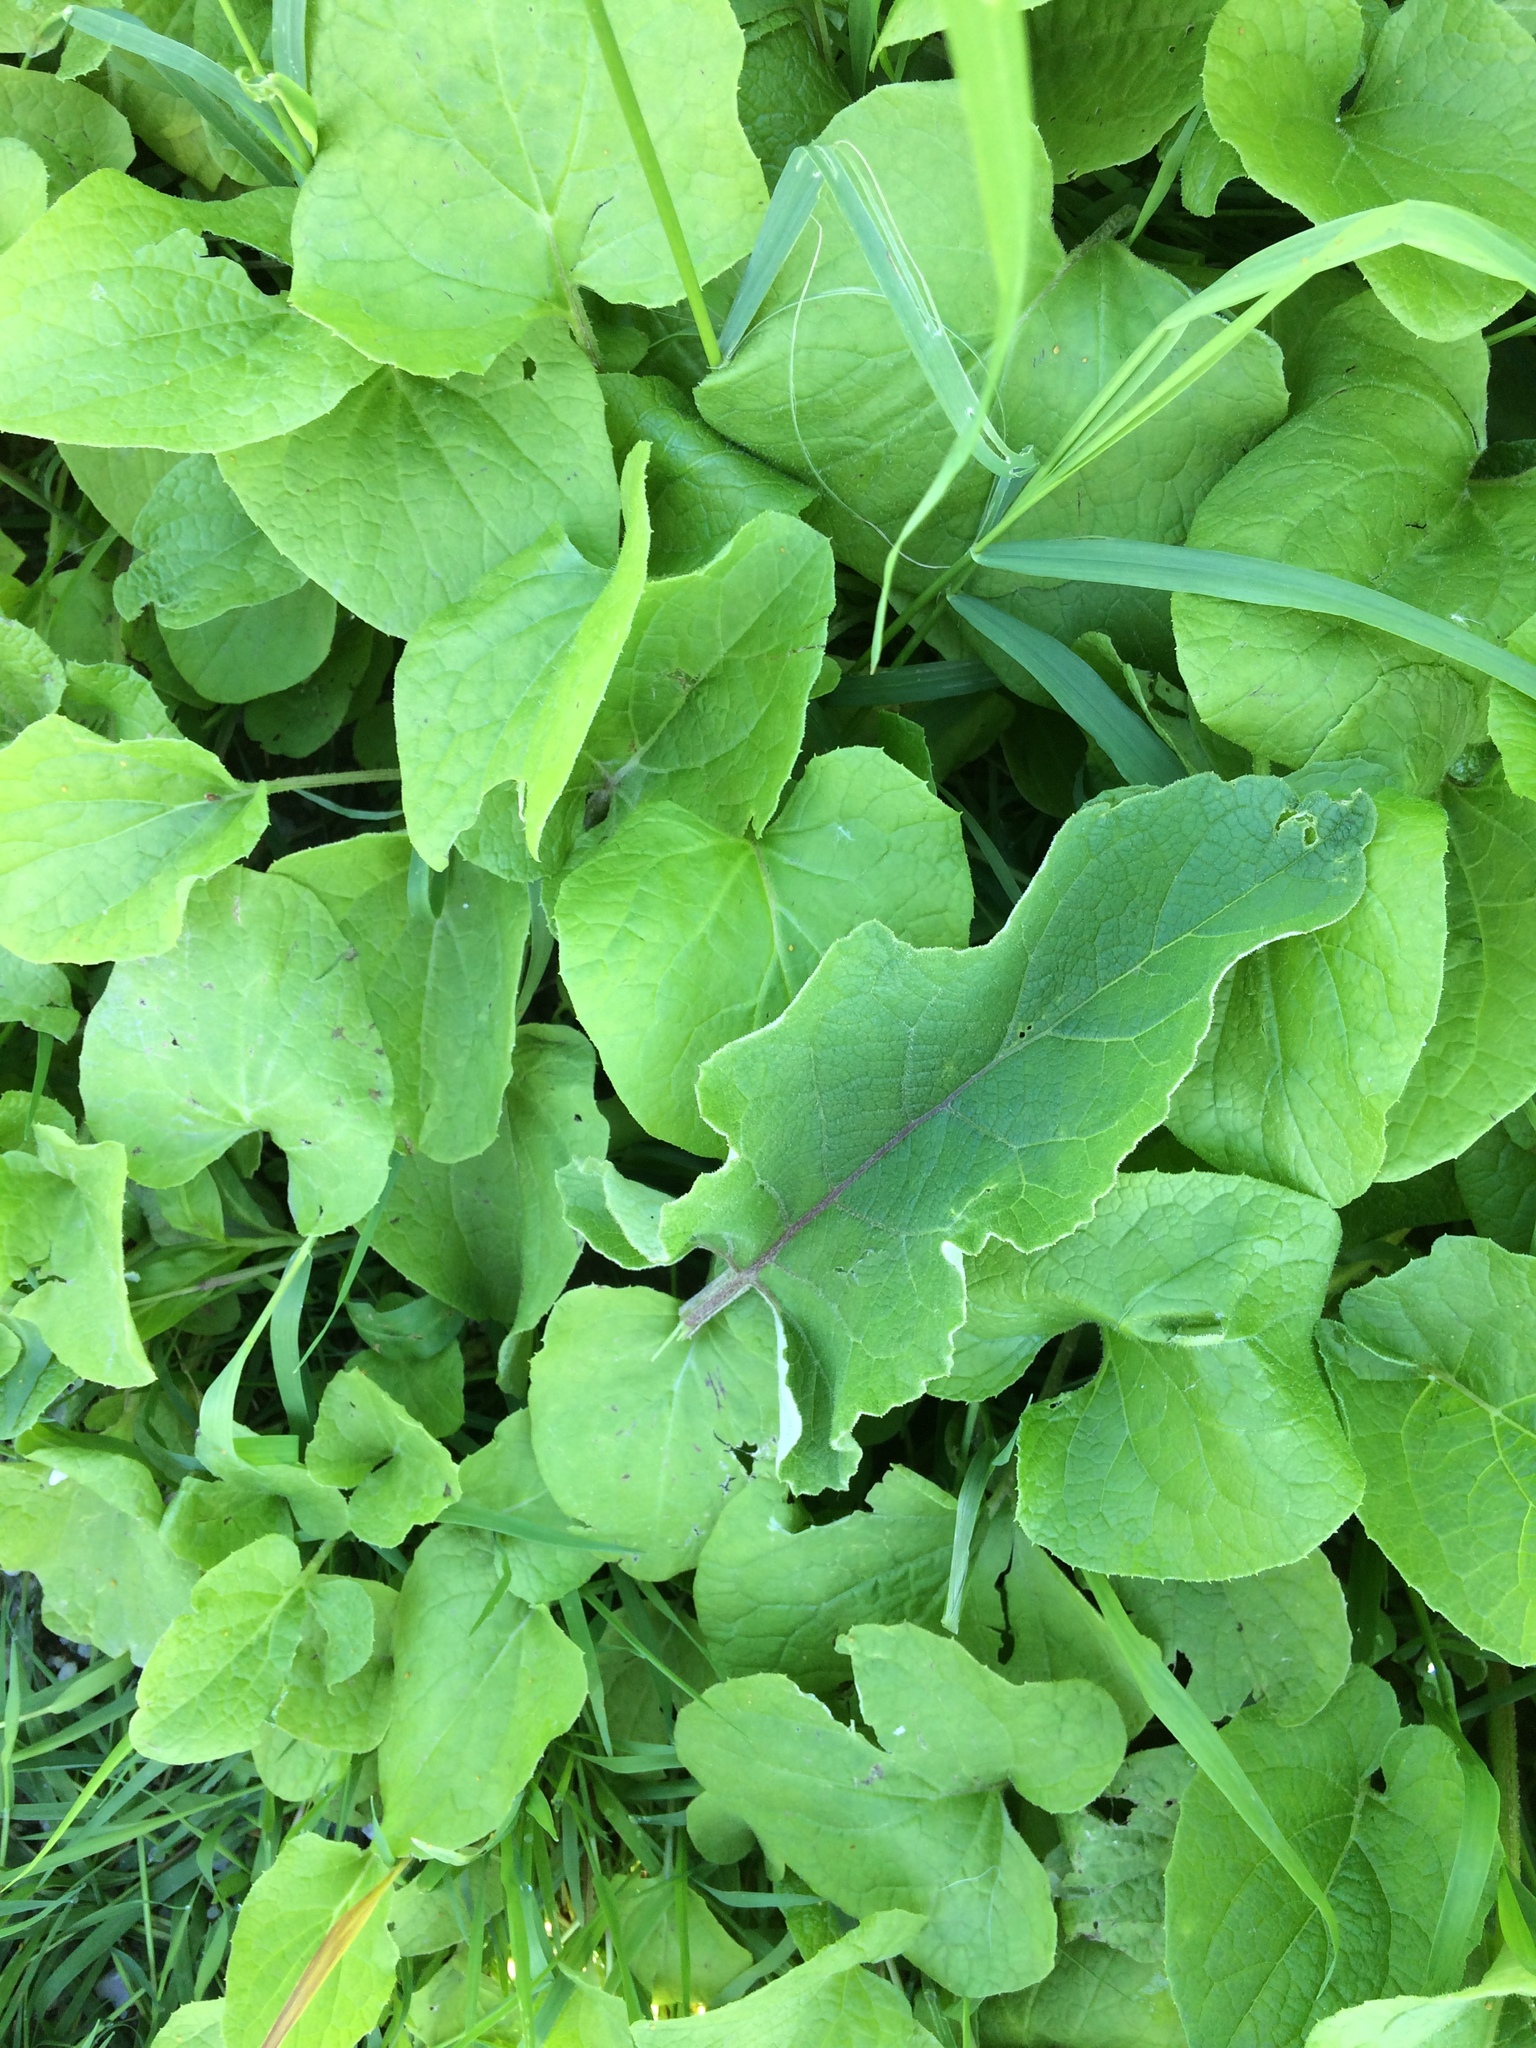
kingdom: Plantae
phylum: Tracheophyta
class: Magnoliopsida
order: Asterales
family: Asteraceae
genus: Arctium
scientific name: Arctium
